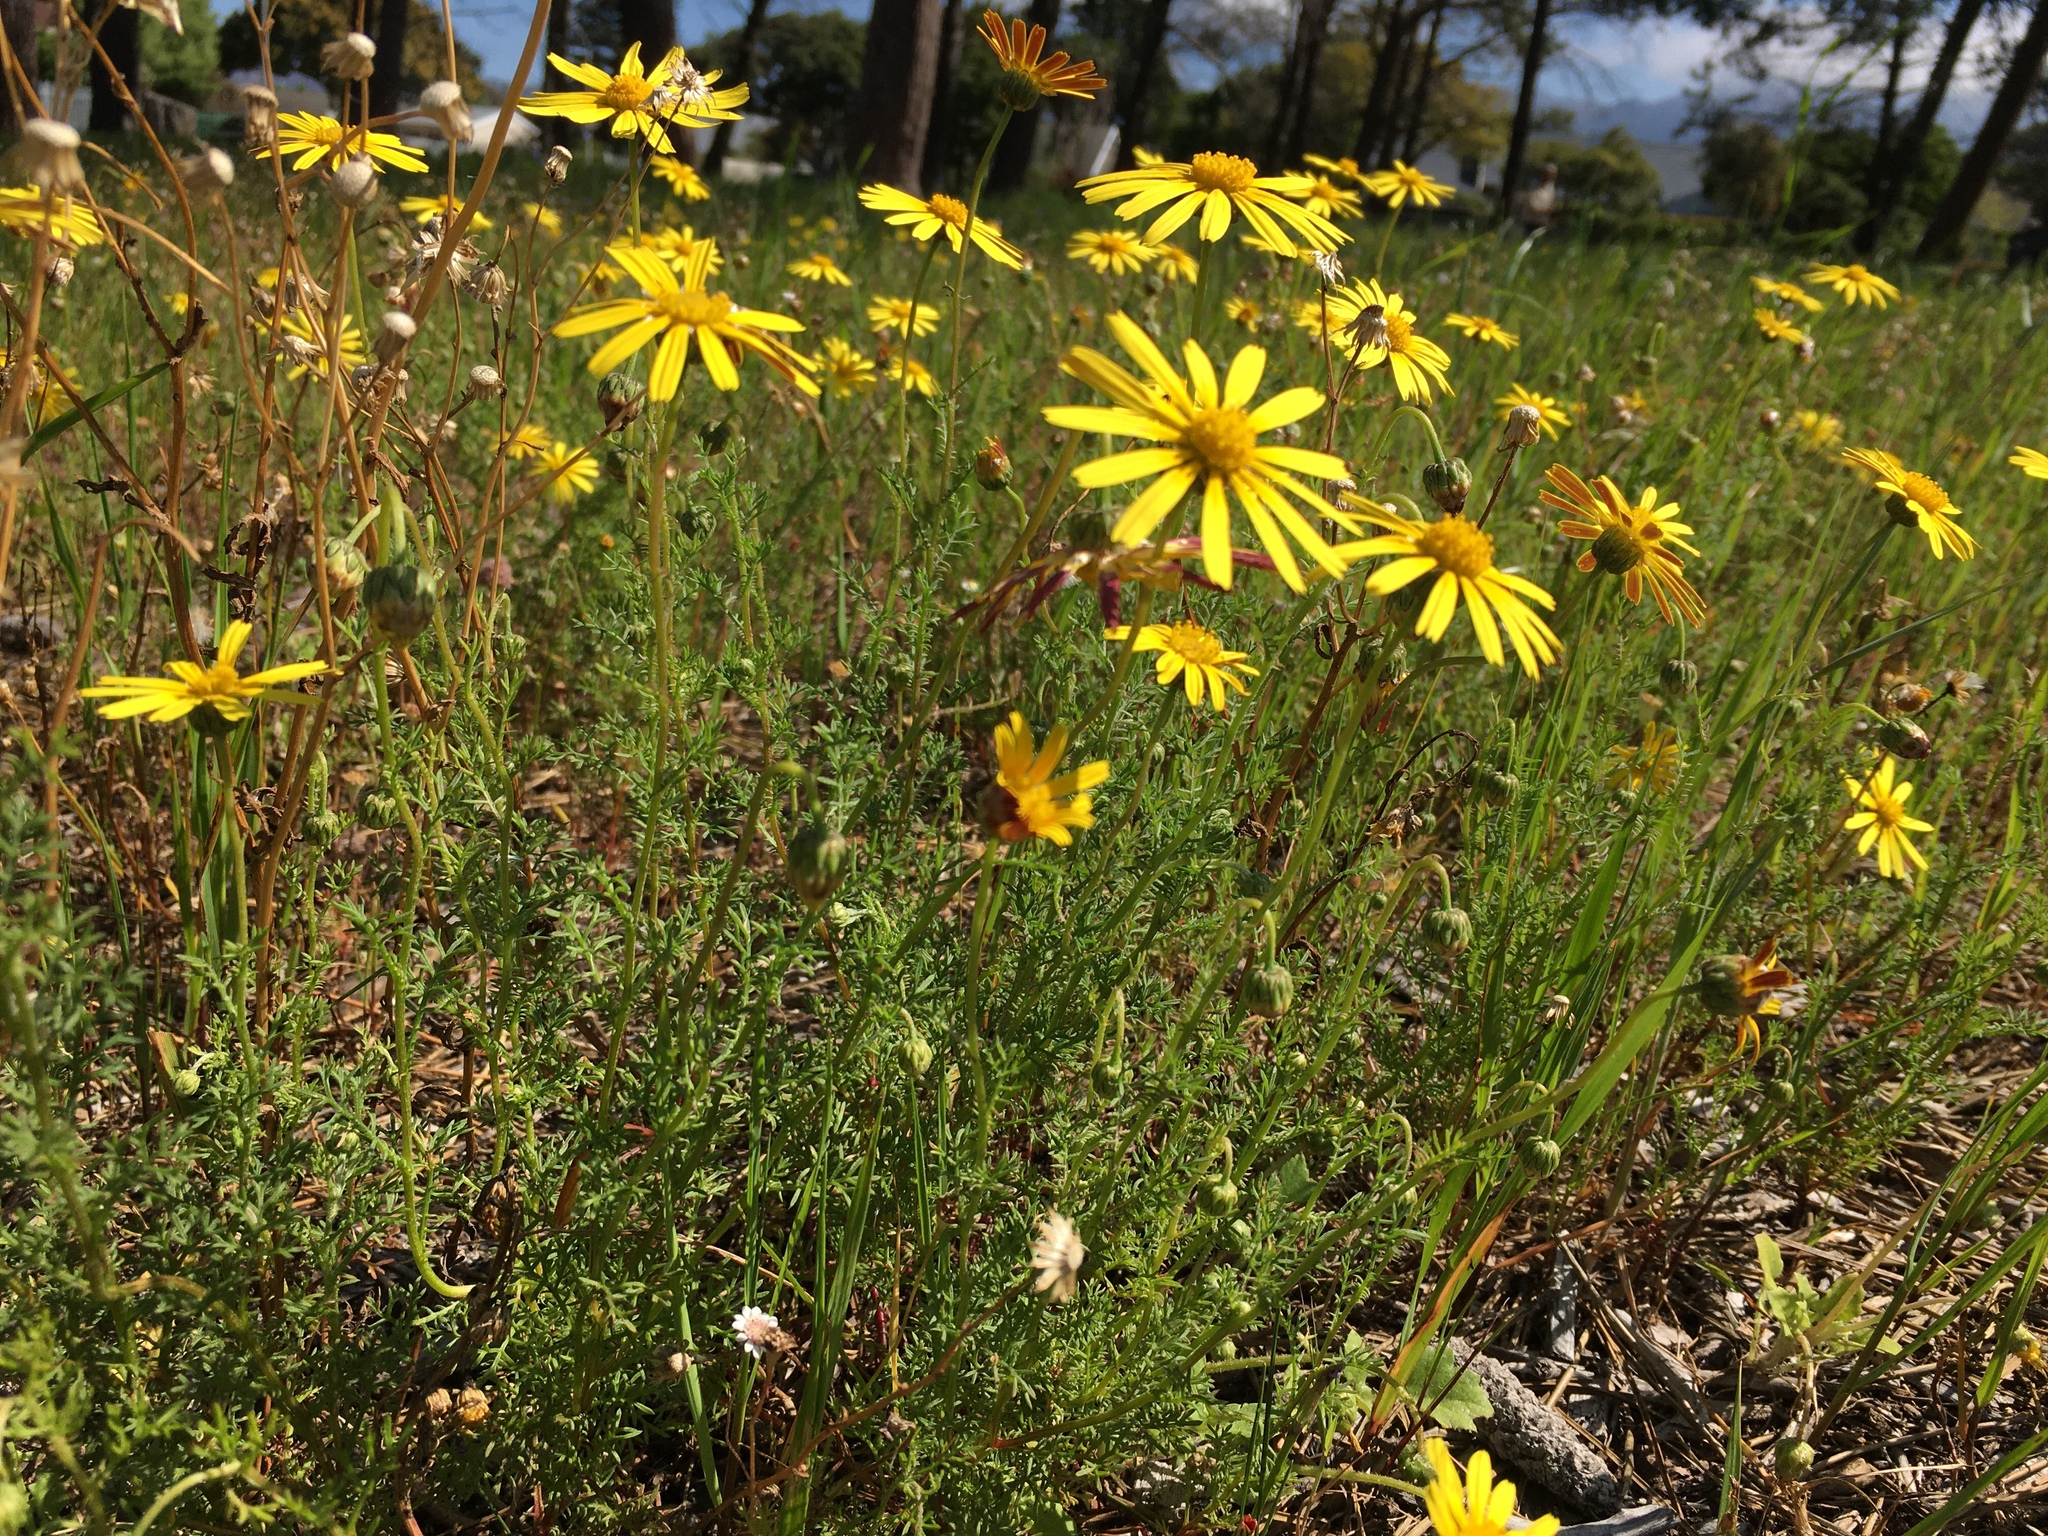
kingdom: Plantae
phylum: Tracheophyta
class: Magnoliopsida
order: Asterales
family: Asteraceae
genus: Ursinia
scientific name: Ursinia anthemoides
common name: Ursinia
